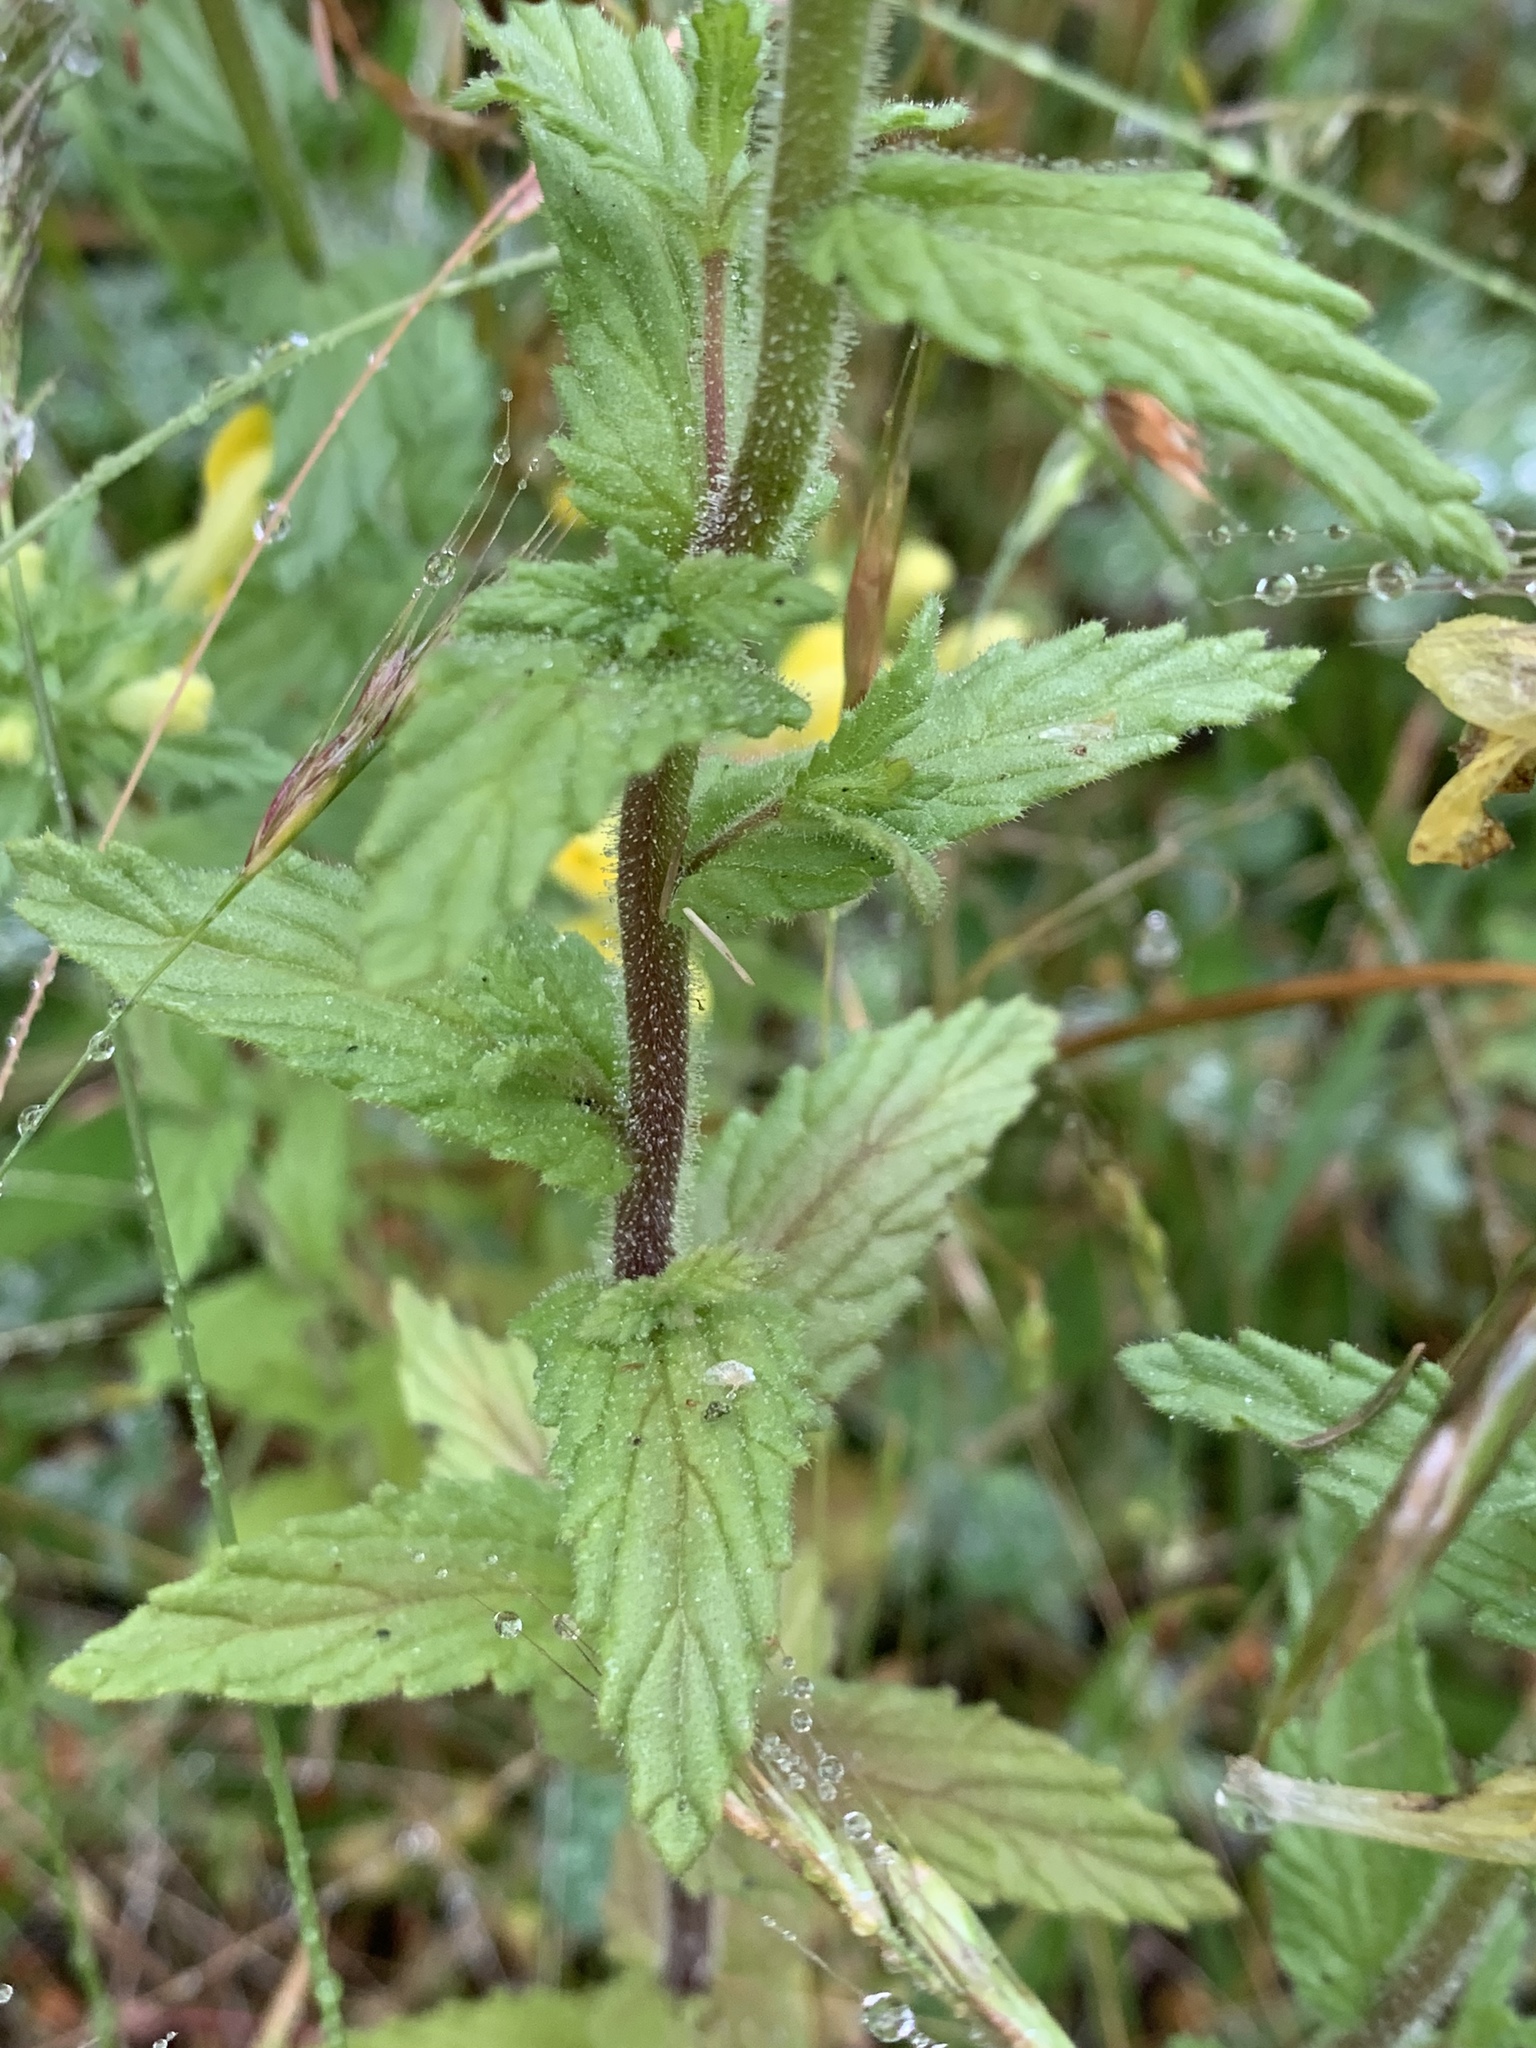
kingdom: Plantae
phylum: Tracheophyta
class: Magnoliopsida
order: Lamiales
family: Orobanchaceae
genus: Bellardia
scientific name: Bellardia viscosa
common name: Sticky parentucellia
